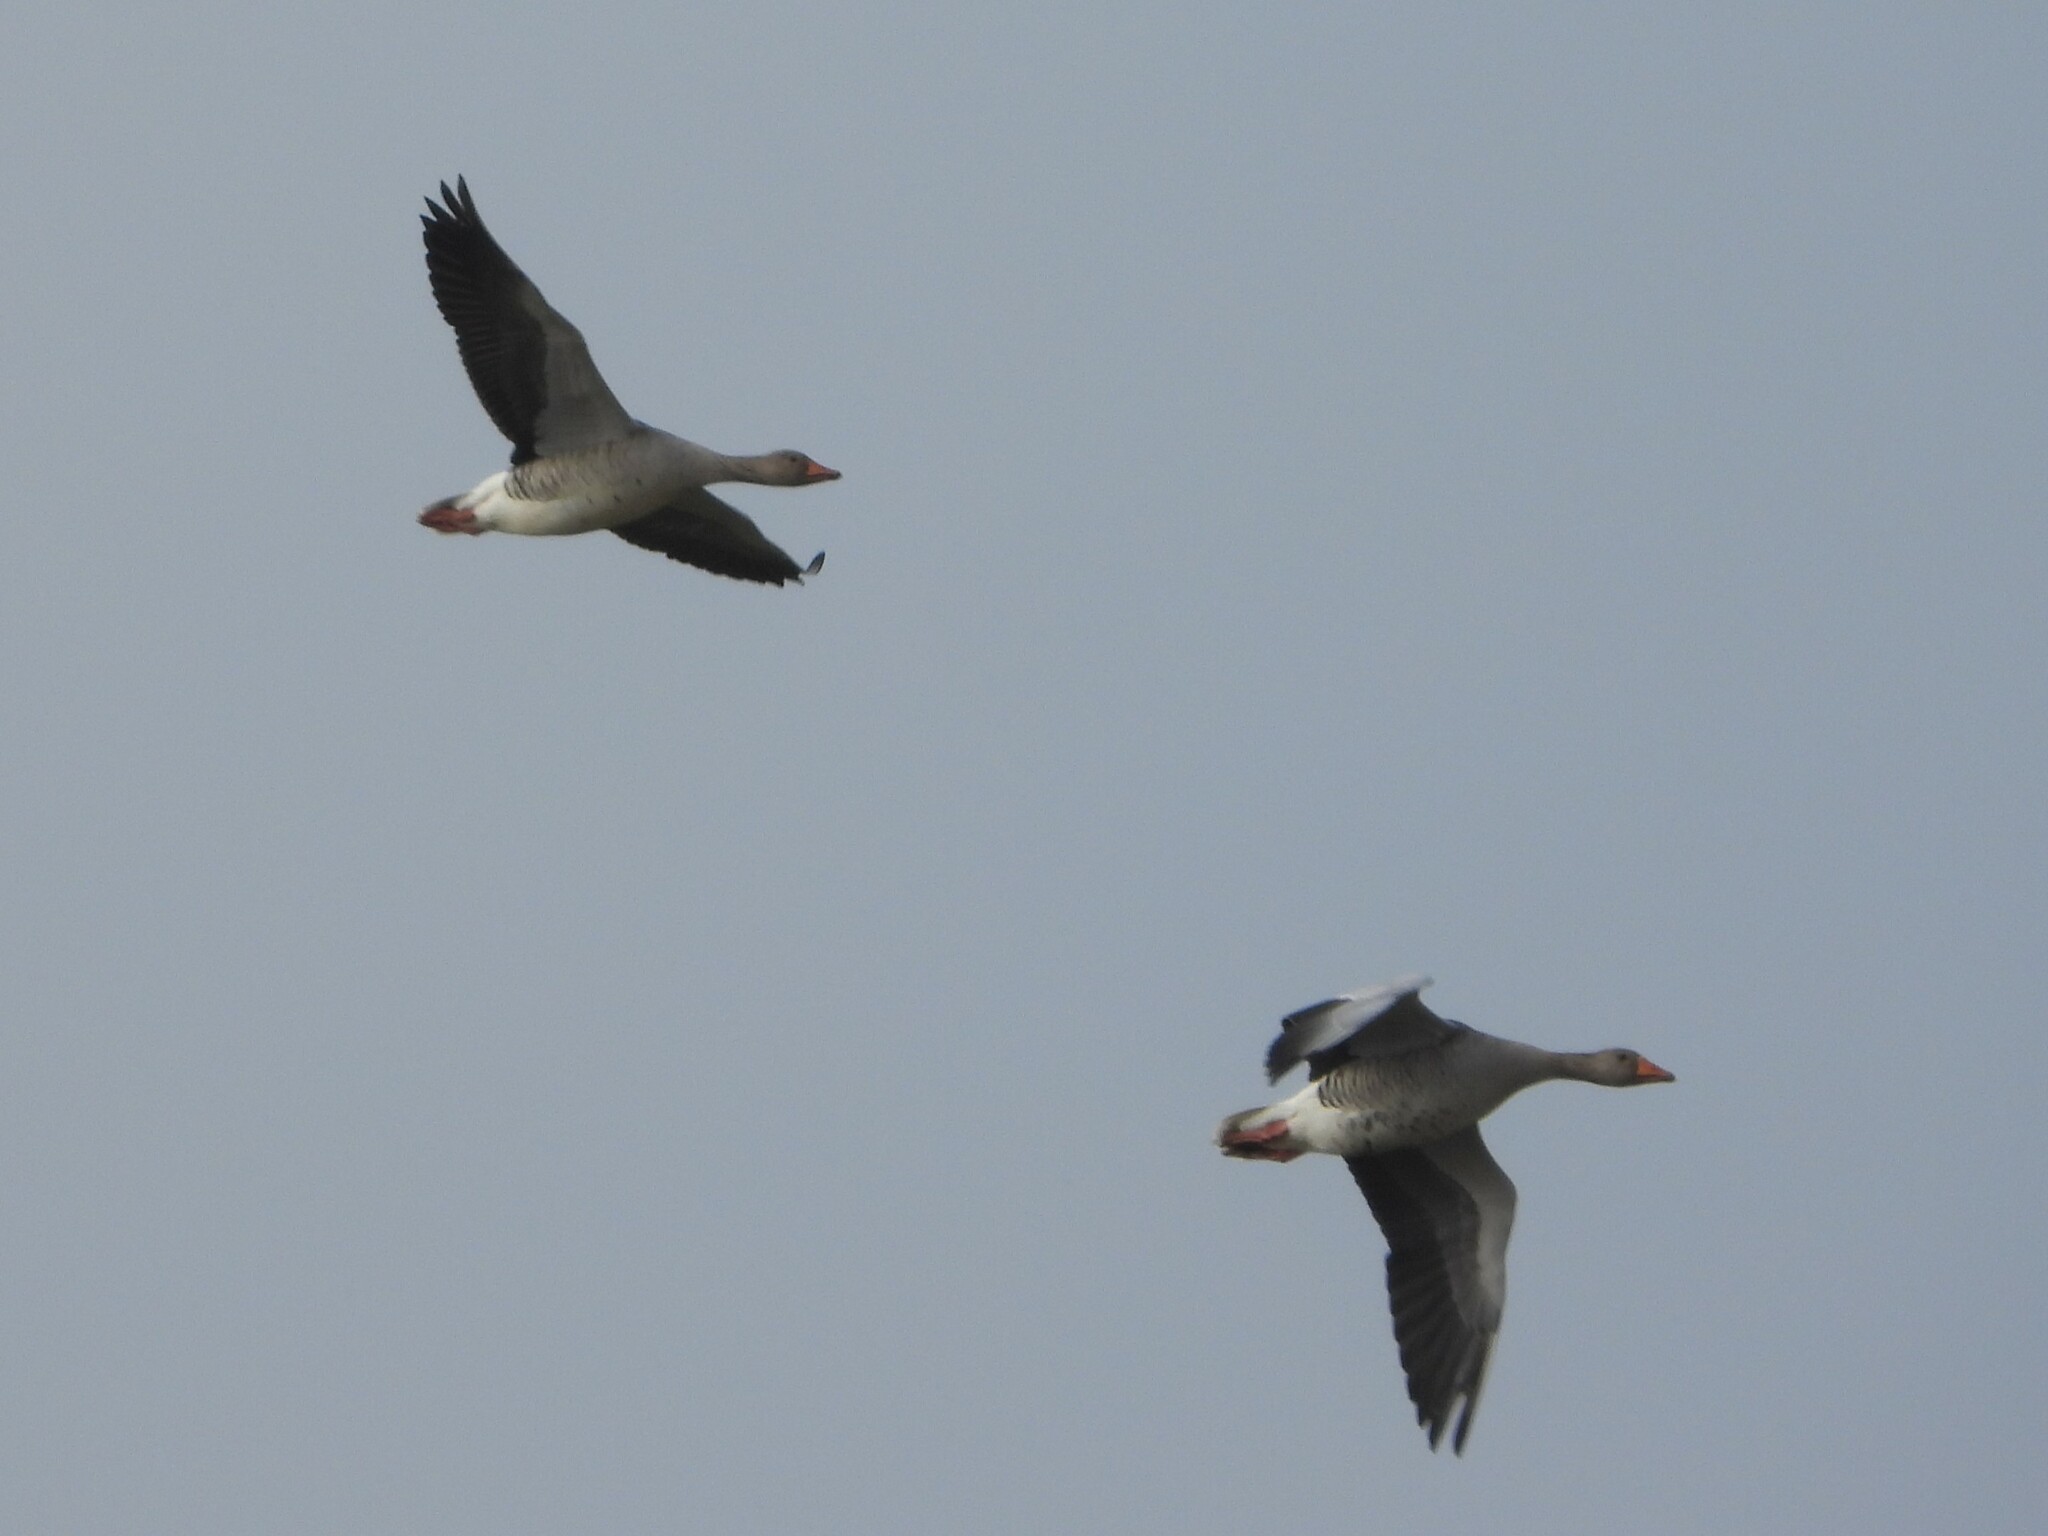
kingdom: Animalia
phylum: Chordata
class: Aves
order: Anseriformes
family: Anatidae
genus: Anser
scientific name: Anser anser
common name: Greylag goose
